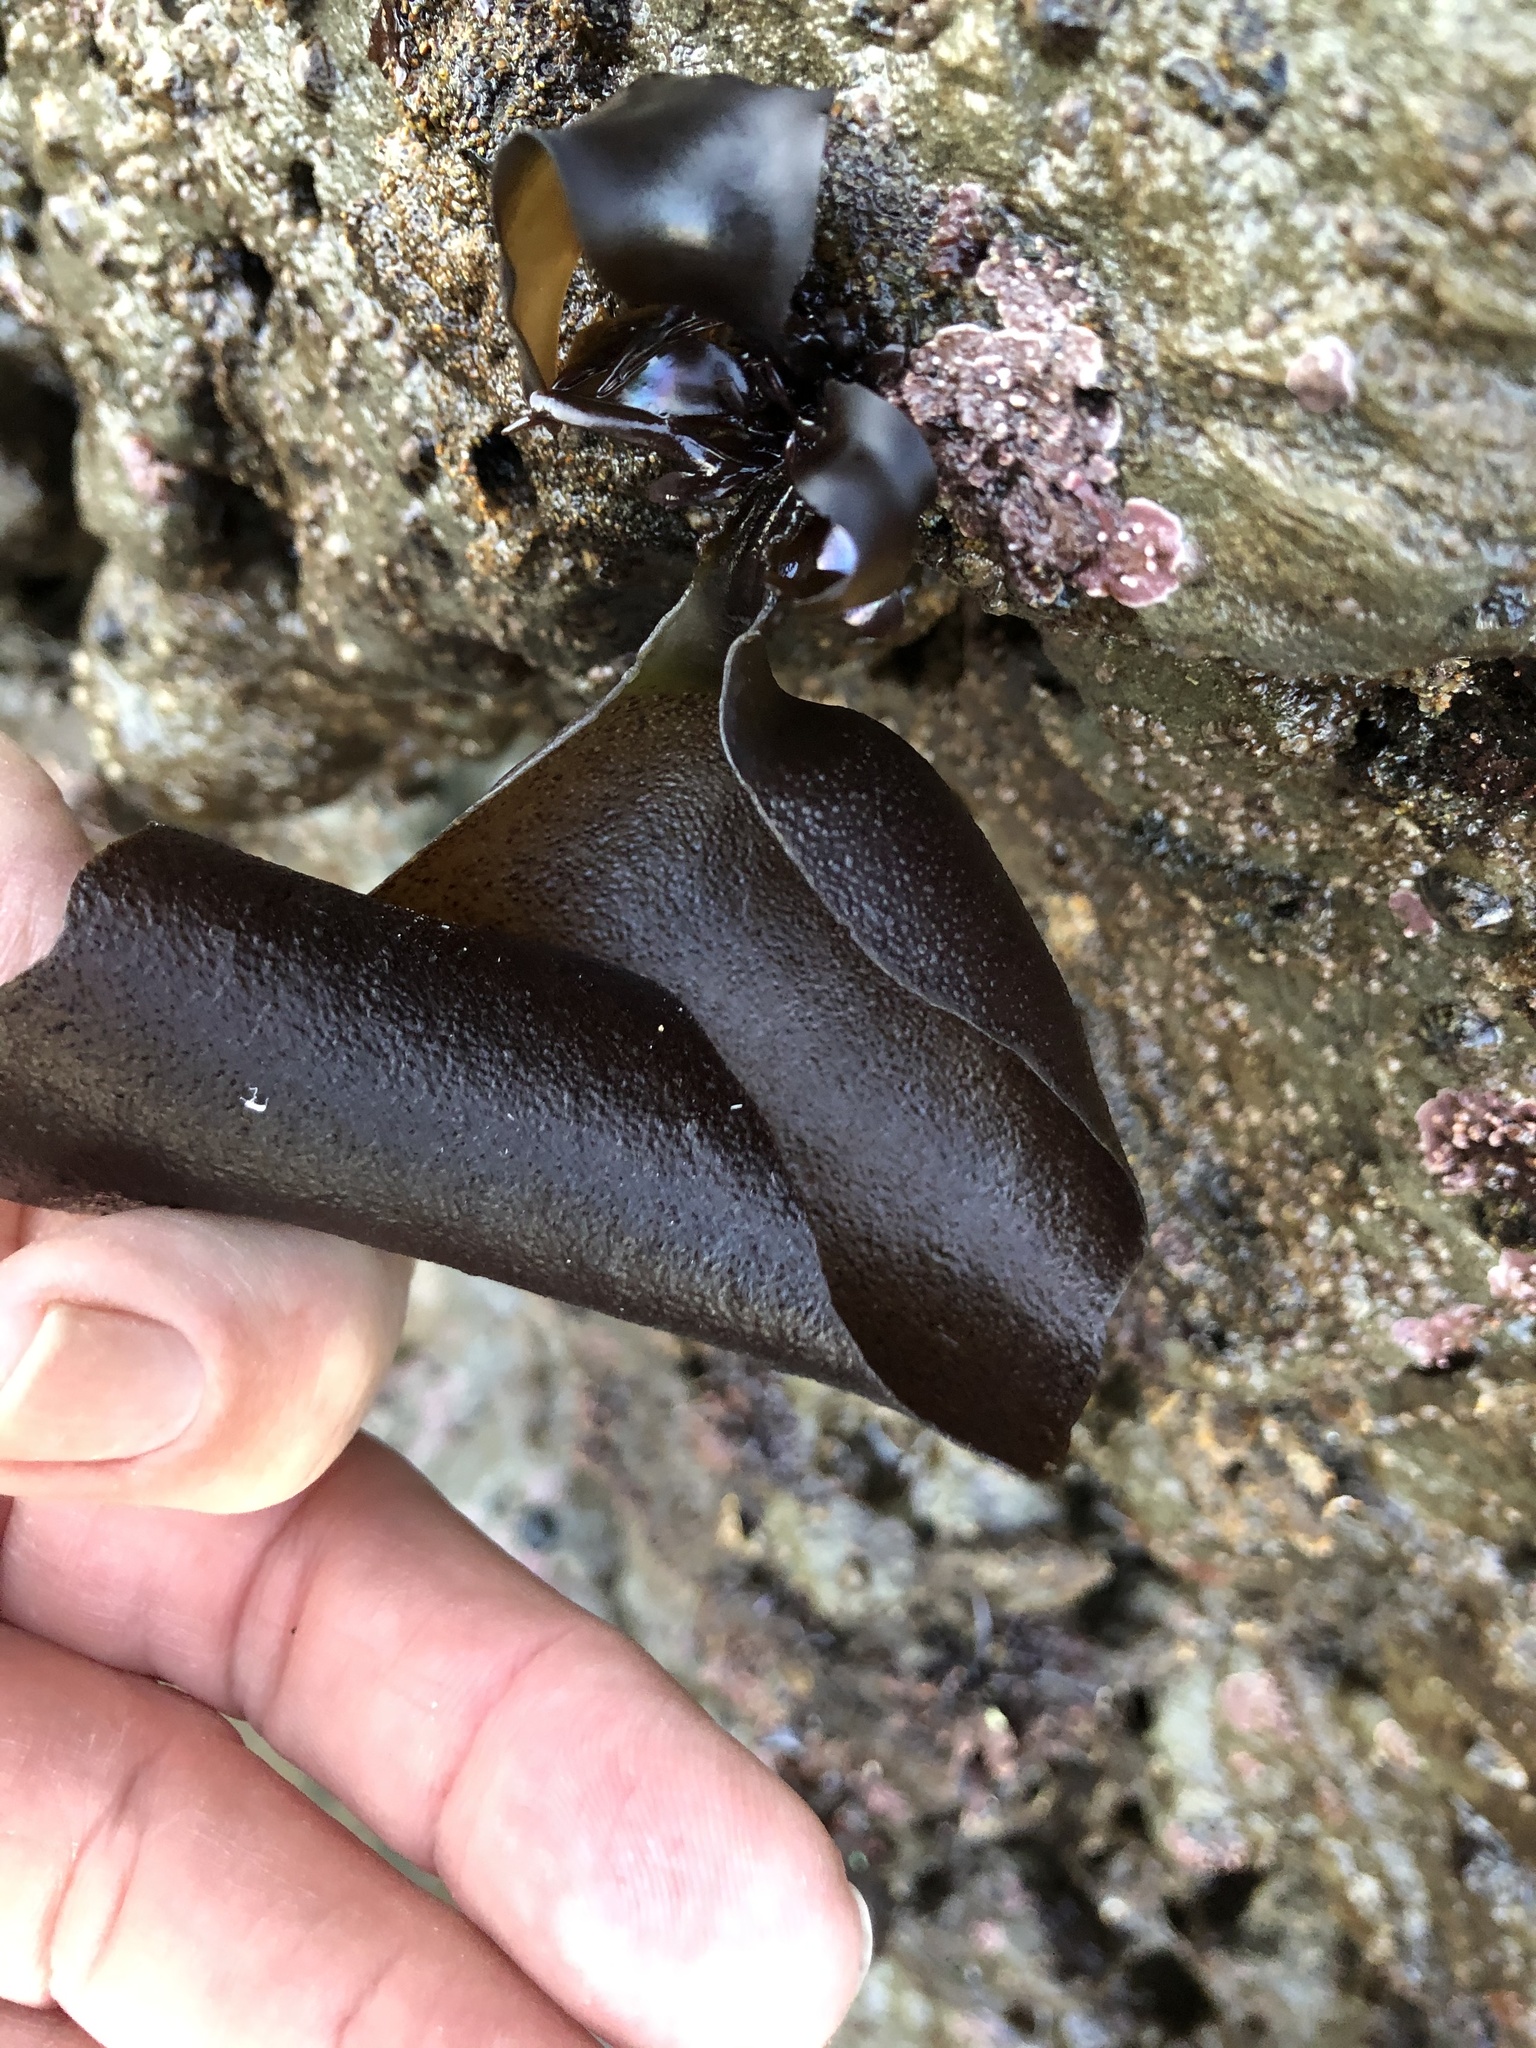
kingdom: Plantae
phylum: Rhodophyta
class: Florideophyceae
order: Gigartinales
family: Gigartinaceae
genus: Mazzaella
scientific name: Mazzaella flaccida
